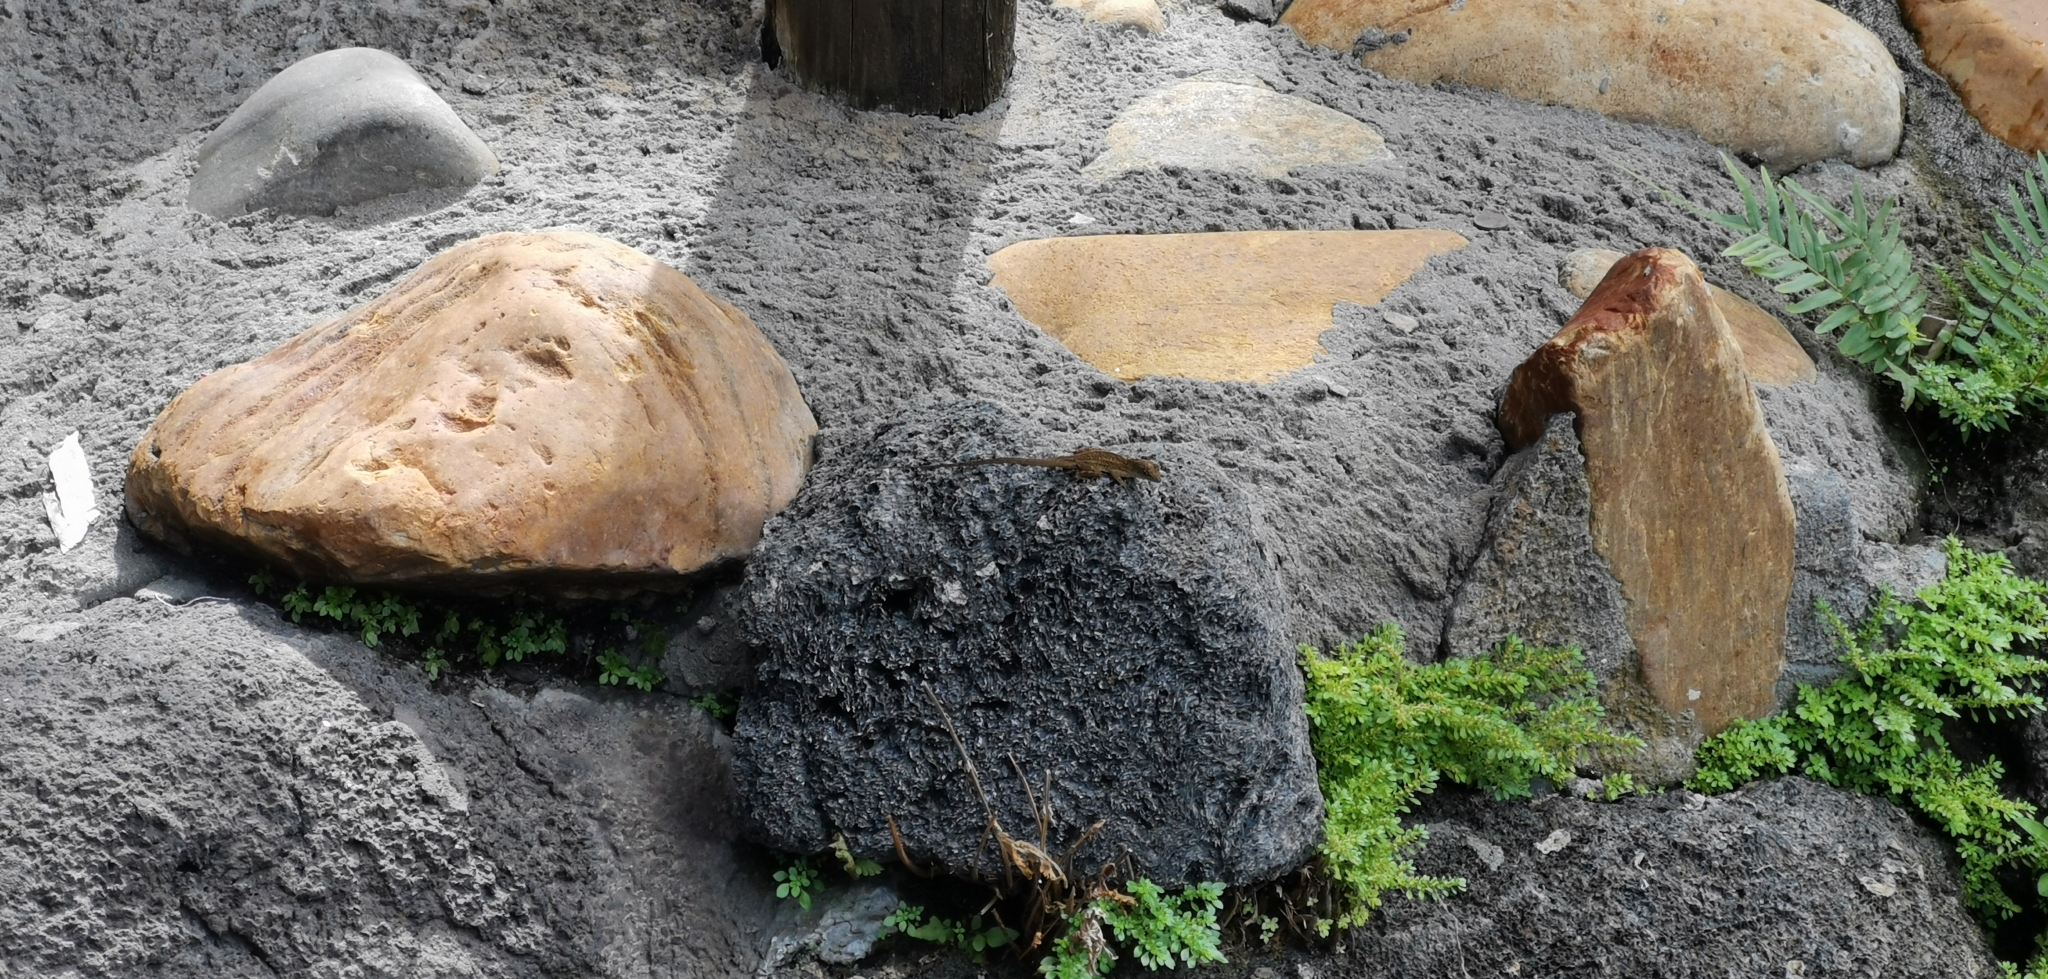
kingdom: Animalia
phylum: Chordata
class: Squamata
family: Dactyloidae
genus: Anolis
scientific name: Anolis sagrei
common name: Brown anole
